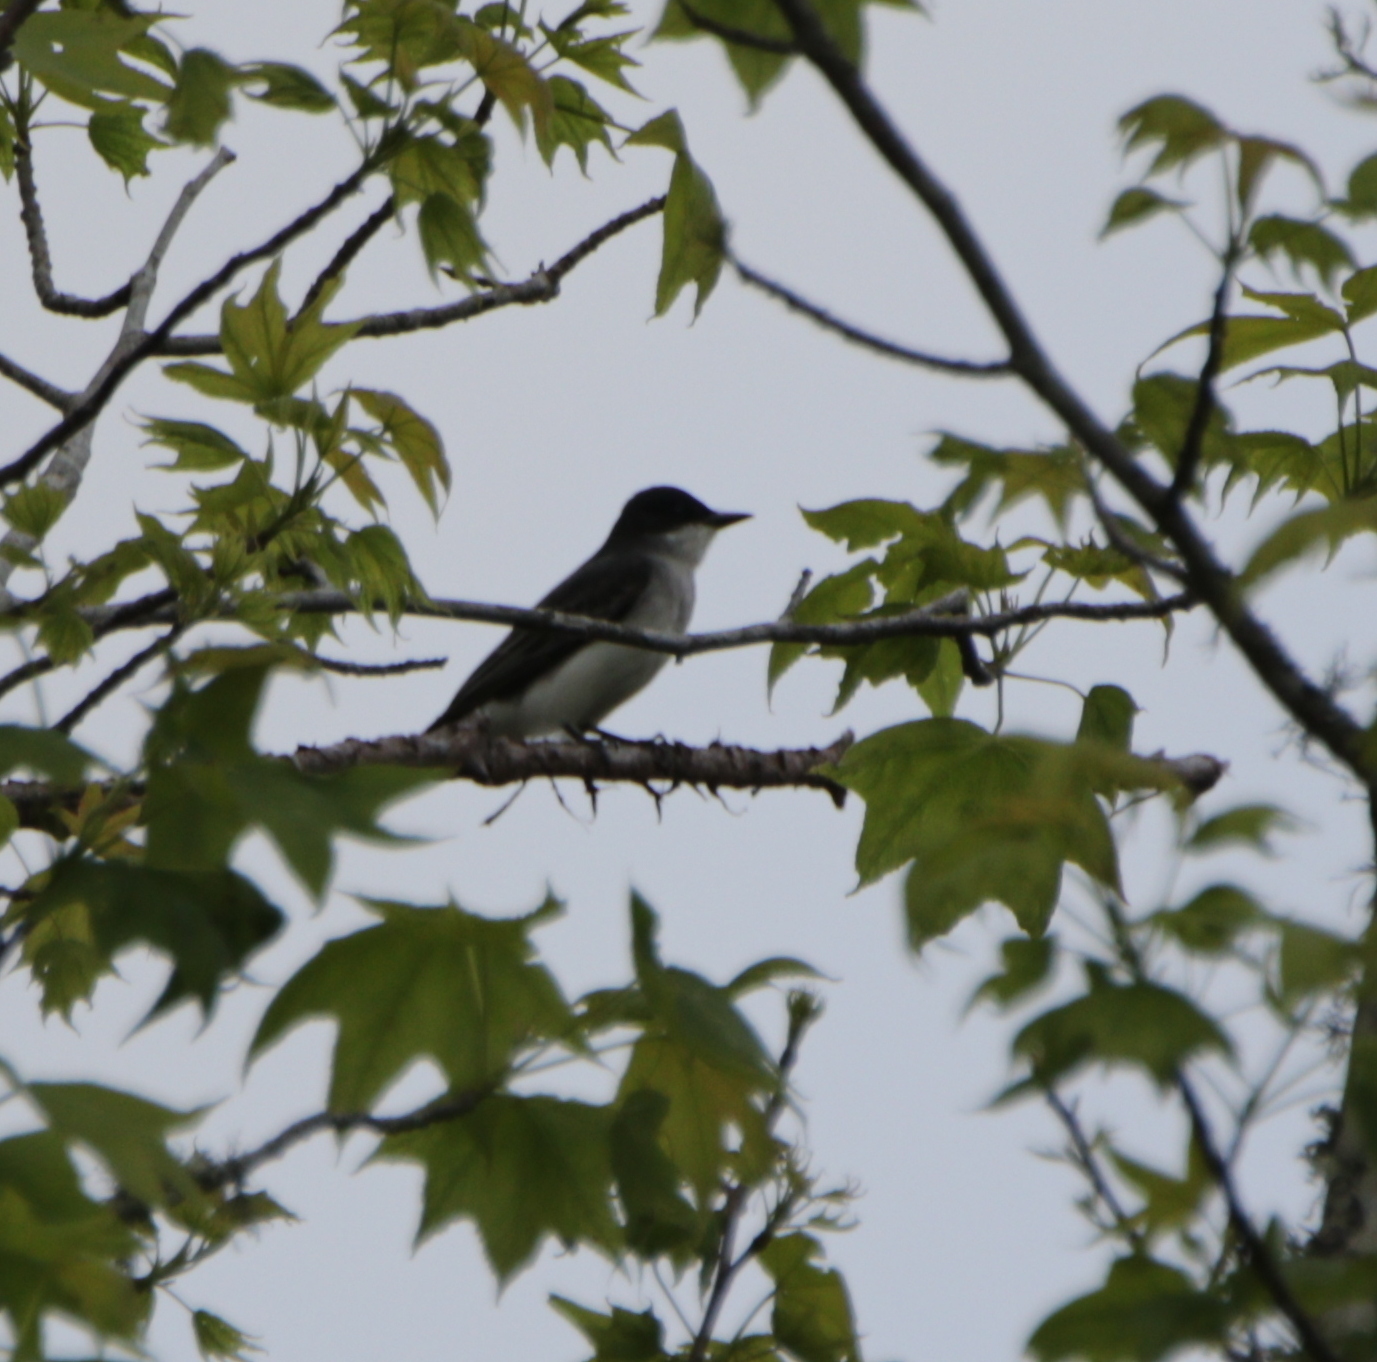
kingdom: Animalia
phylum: Chordata
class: Aves
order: Passeriformes
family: Tyrannidae
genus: Tyrannus
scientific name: Tyrannus tyrannus
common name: Eastern kingbird
